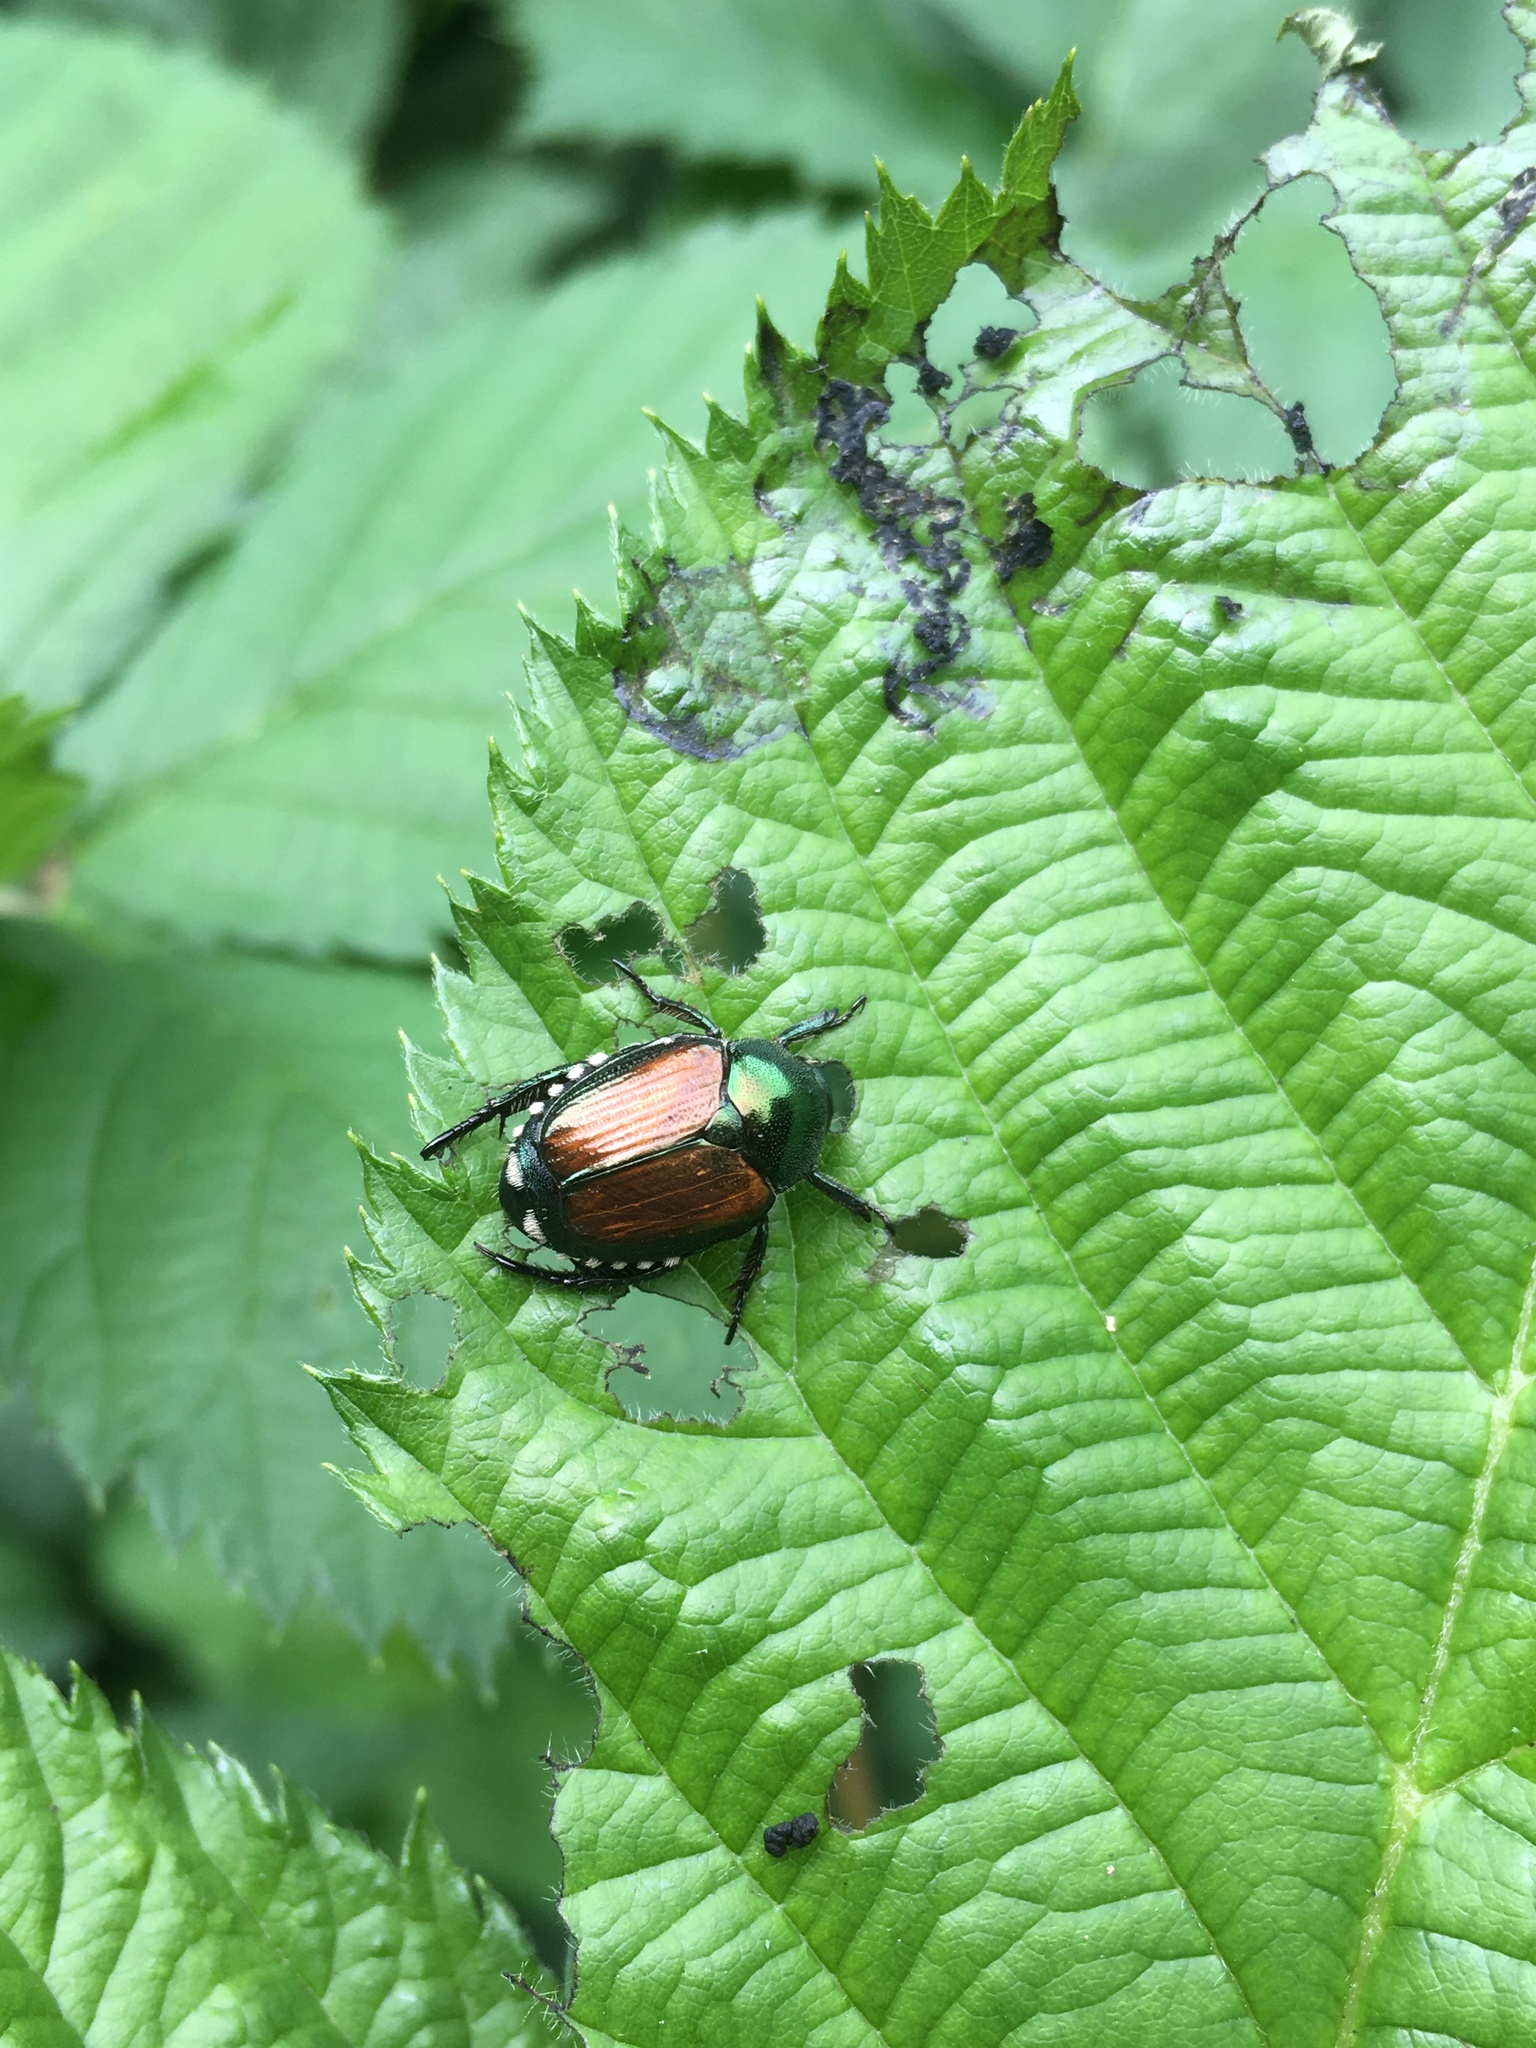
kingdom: Animalia
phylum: Arthropoda
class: Insecta
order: Coleoptera
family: Scarabaeidae
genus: Popillia
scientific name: Popillia japonica
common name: Japanese beetle
